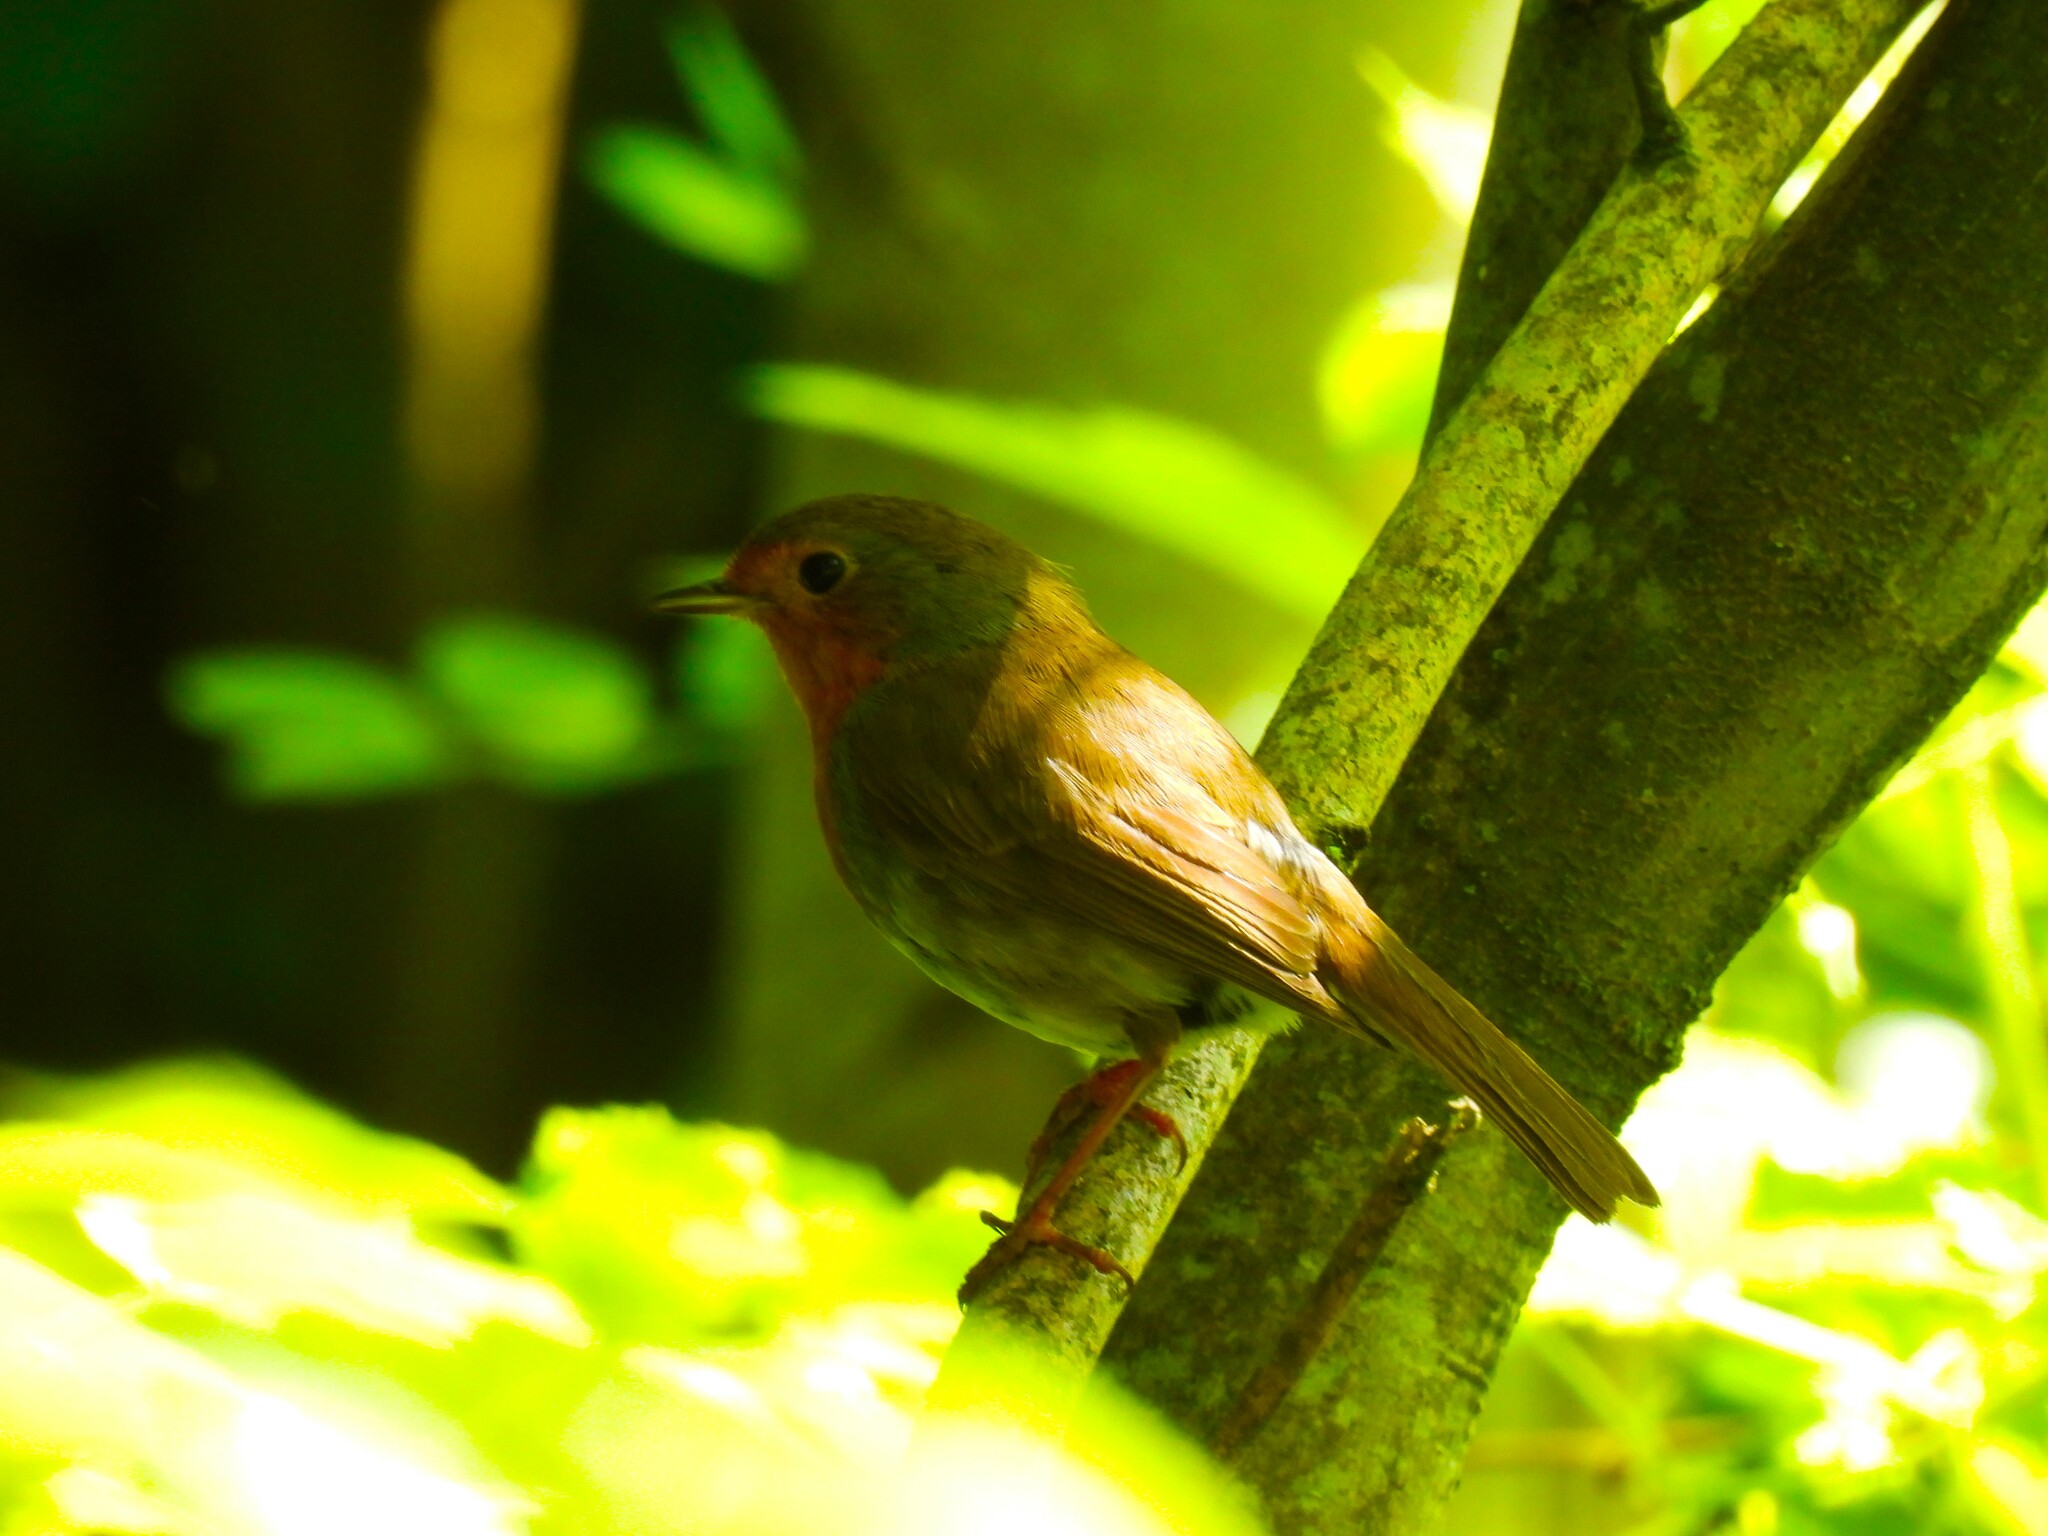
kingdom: Animalia
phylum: Chordata
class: Aves
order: Passeriformes
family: Muscicapidae
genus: Erithacus
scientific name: Erithacus rubecula
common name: European robin
